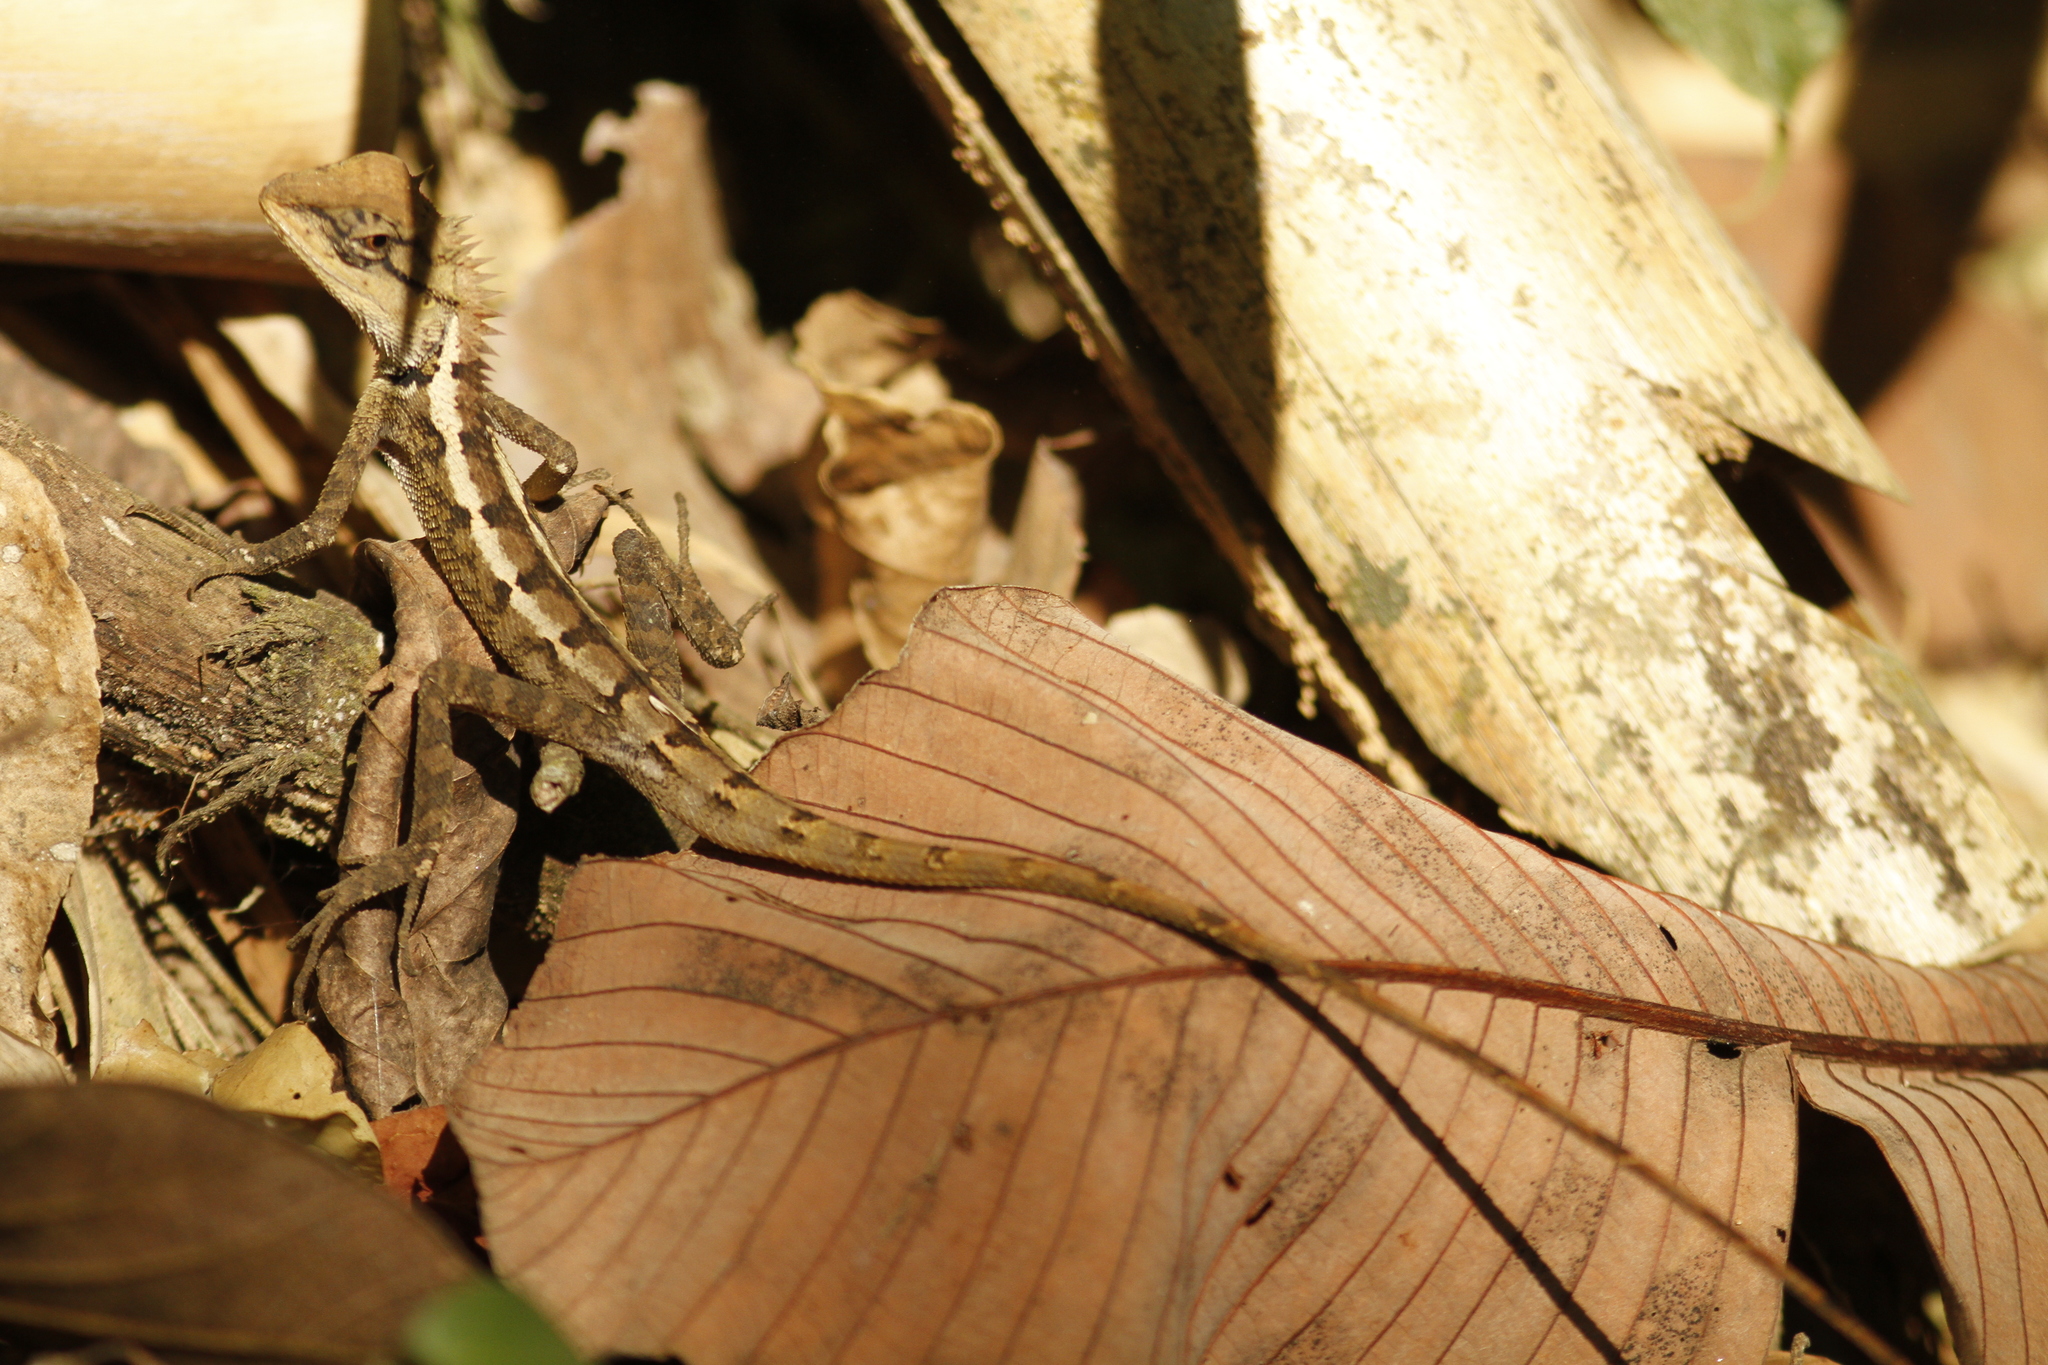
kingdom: Animalia
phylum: Chordata
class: Squamata
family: Agamidae
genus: Calotes
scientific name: Calotes emma
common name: Thailand bloodsucker
